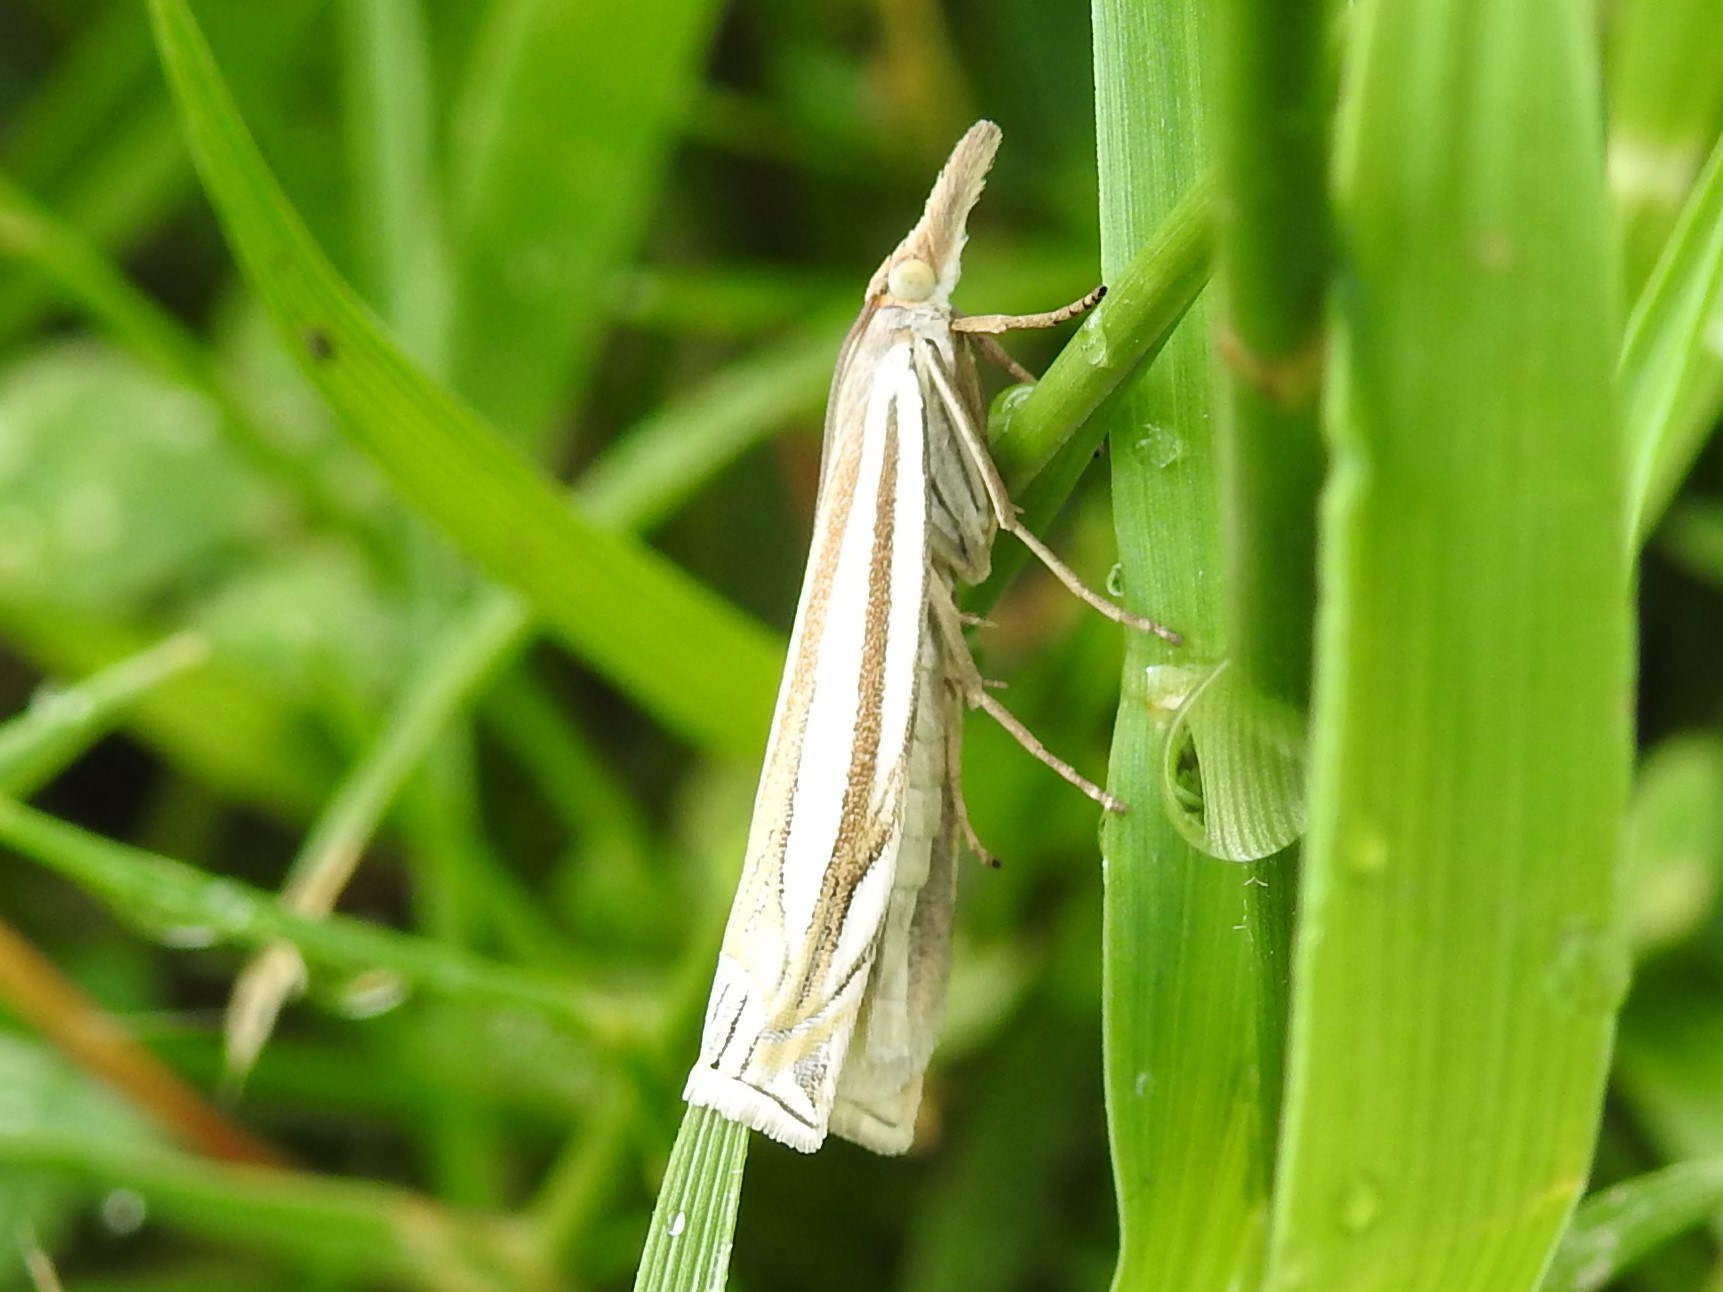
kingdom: Animalia
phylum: Arthropoda
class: Insecta
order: Lepidoptera
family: Crambidae
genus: Crambus
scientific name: Crambus laqueatellus
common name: Eastern grass-veneer
